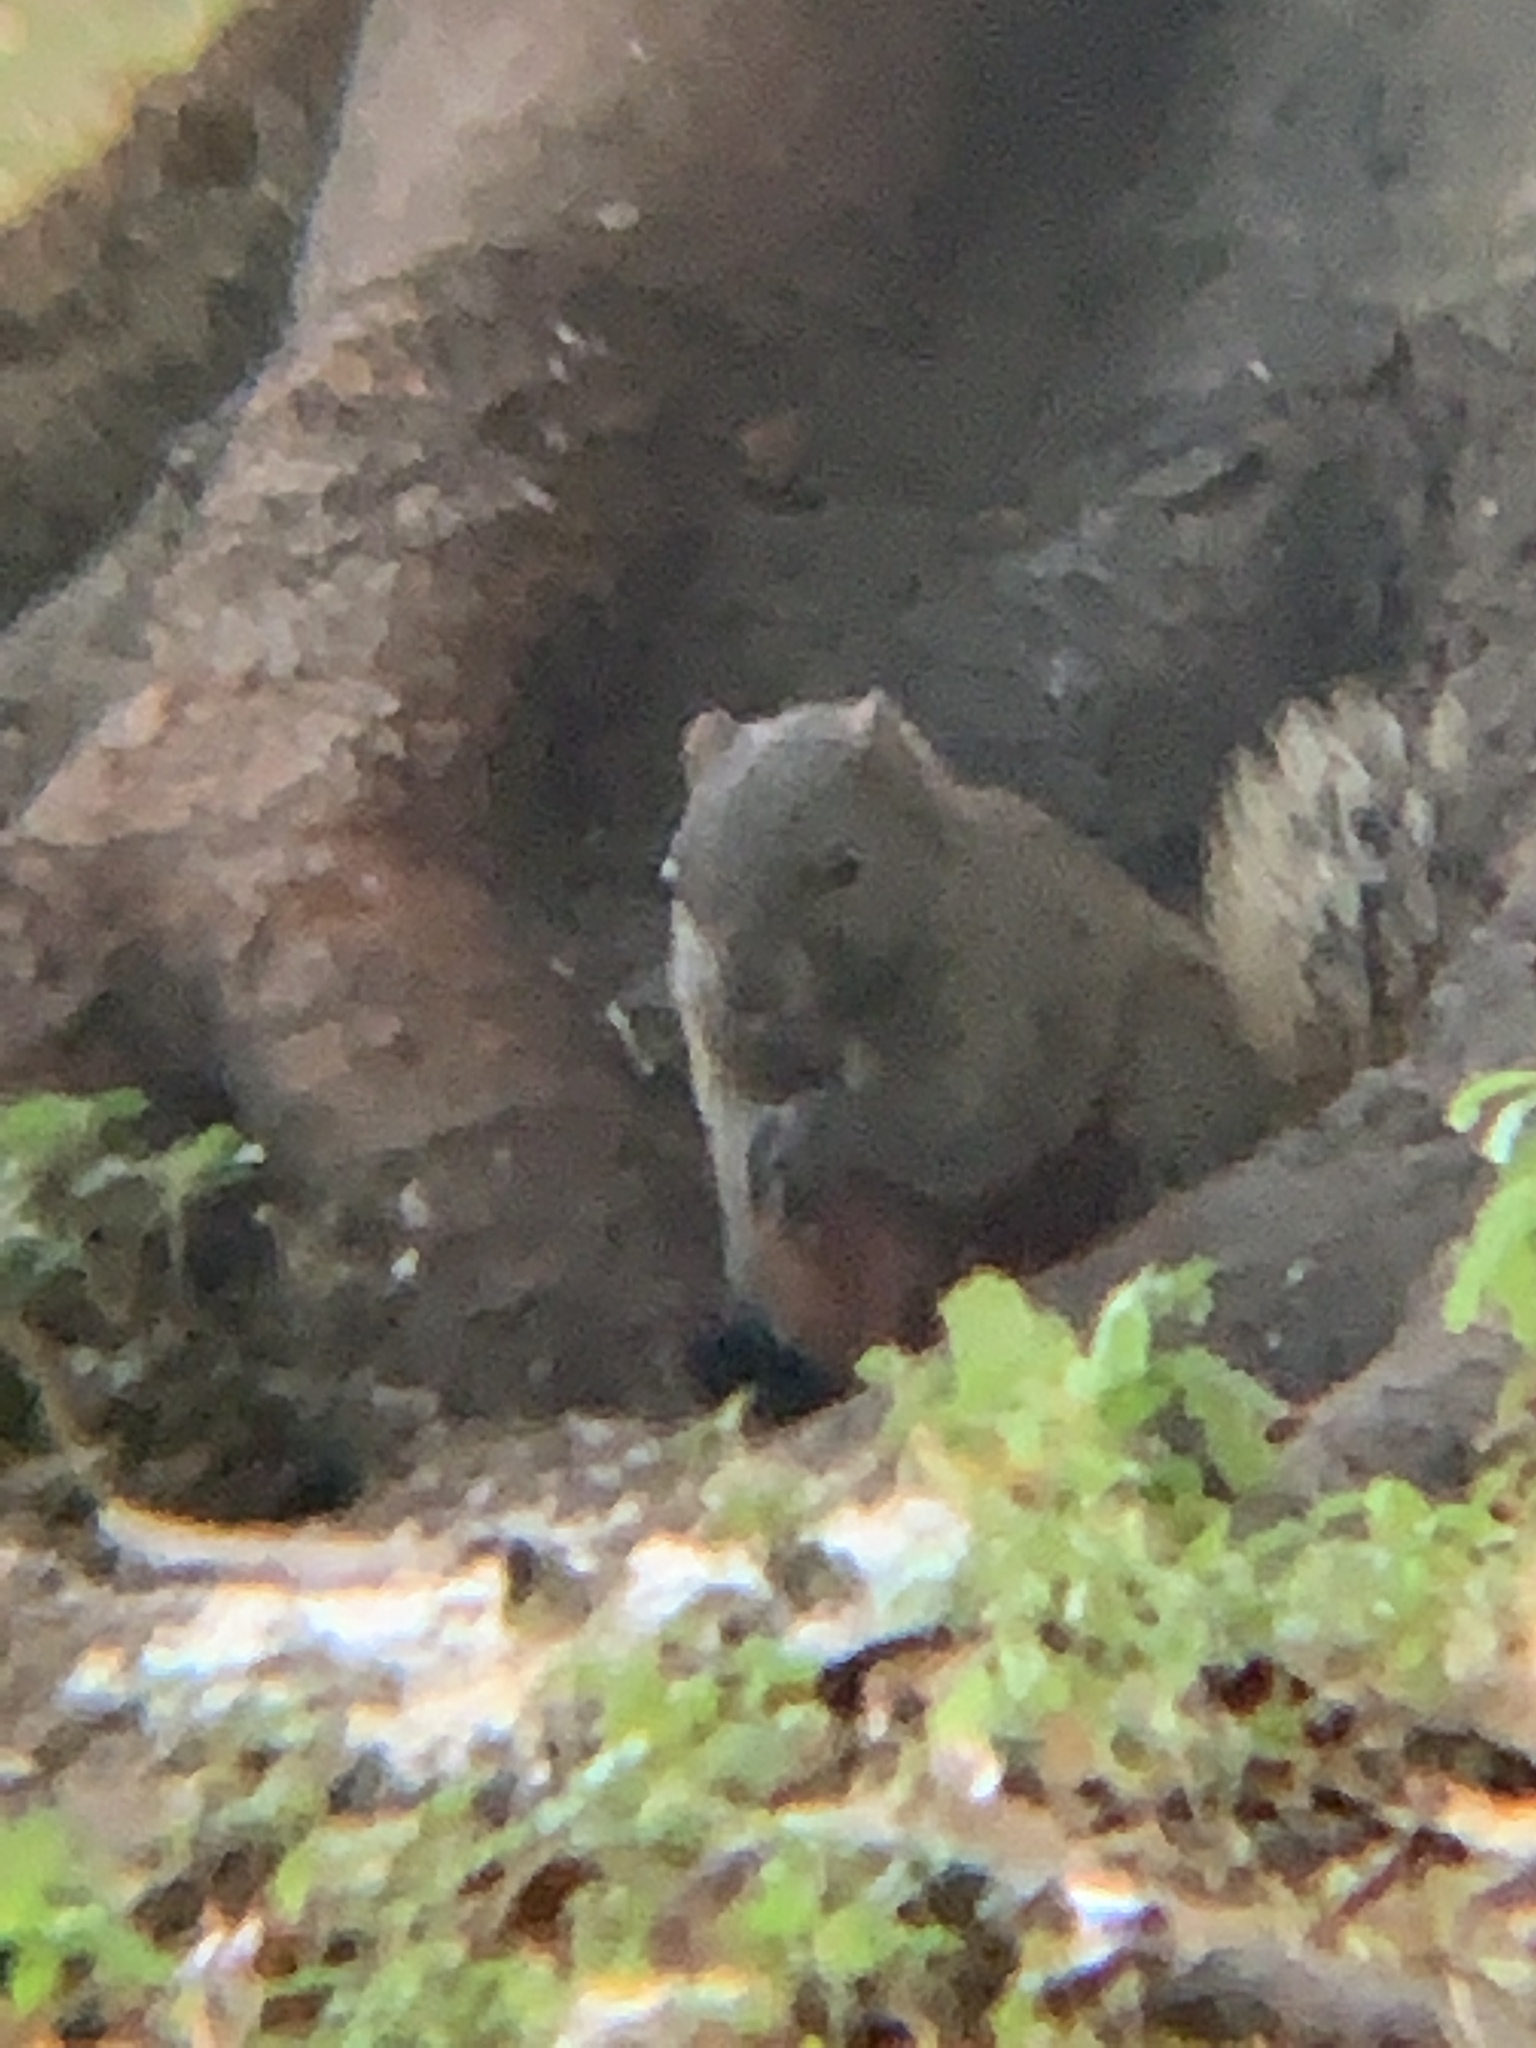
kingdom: Animalia
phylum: Chordata
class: Mammalia
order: Rodentia
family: Sciuridae
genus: Callosciurus
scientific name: Callosciurus erythraeus
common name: Pallas's squirrel
